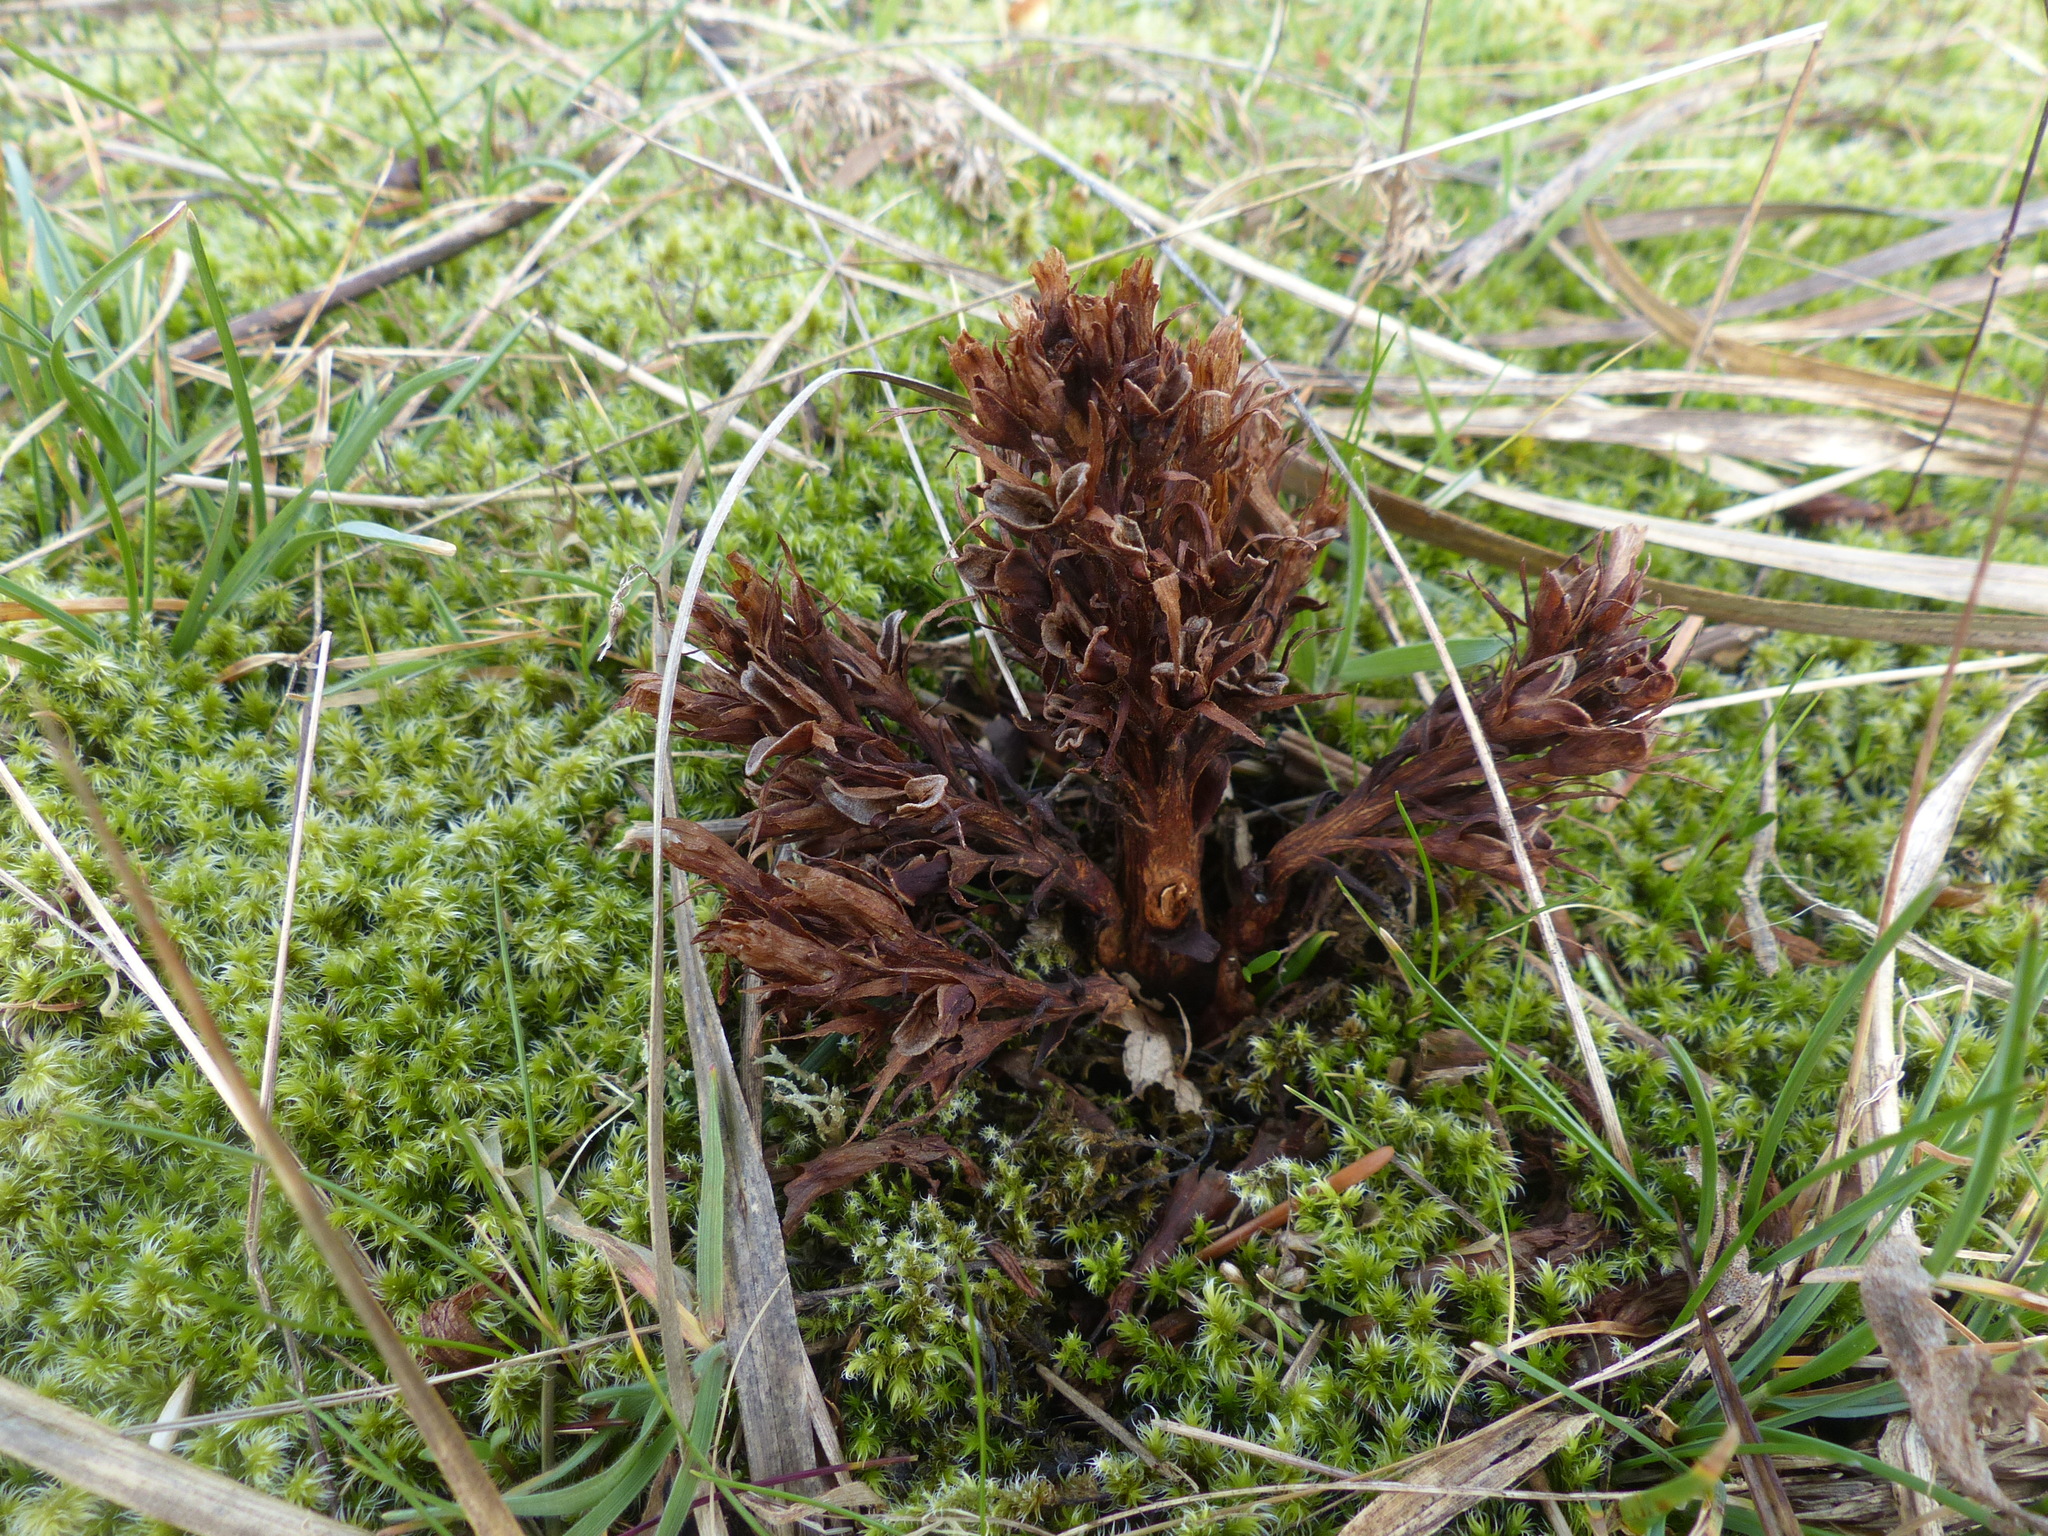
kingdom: Plantae
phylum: Tracheophyta
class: Magnoliopsida
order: Lamiales
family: Orobanchaceae
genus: Aphyllon
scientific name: Aphyllon californicum
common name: California broomrape
